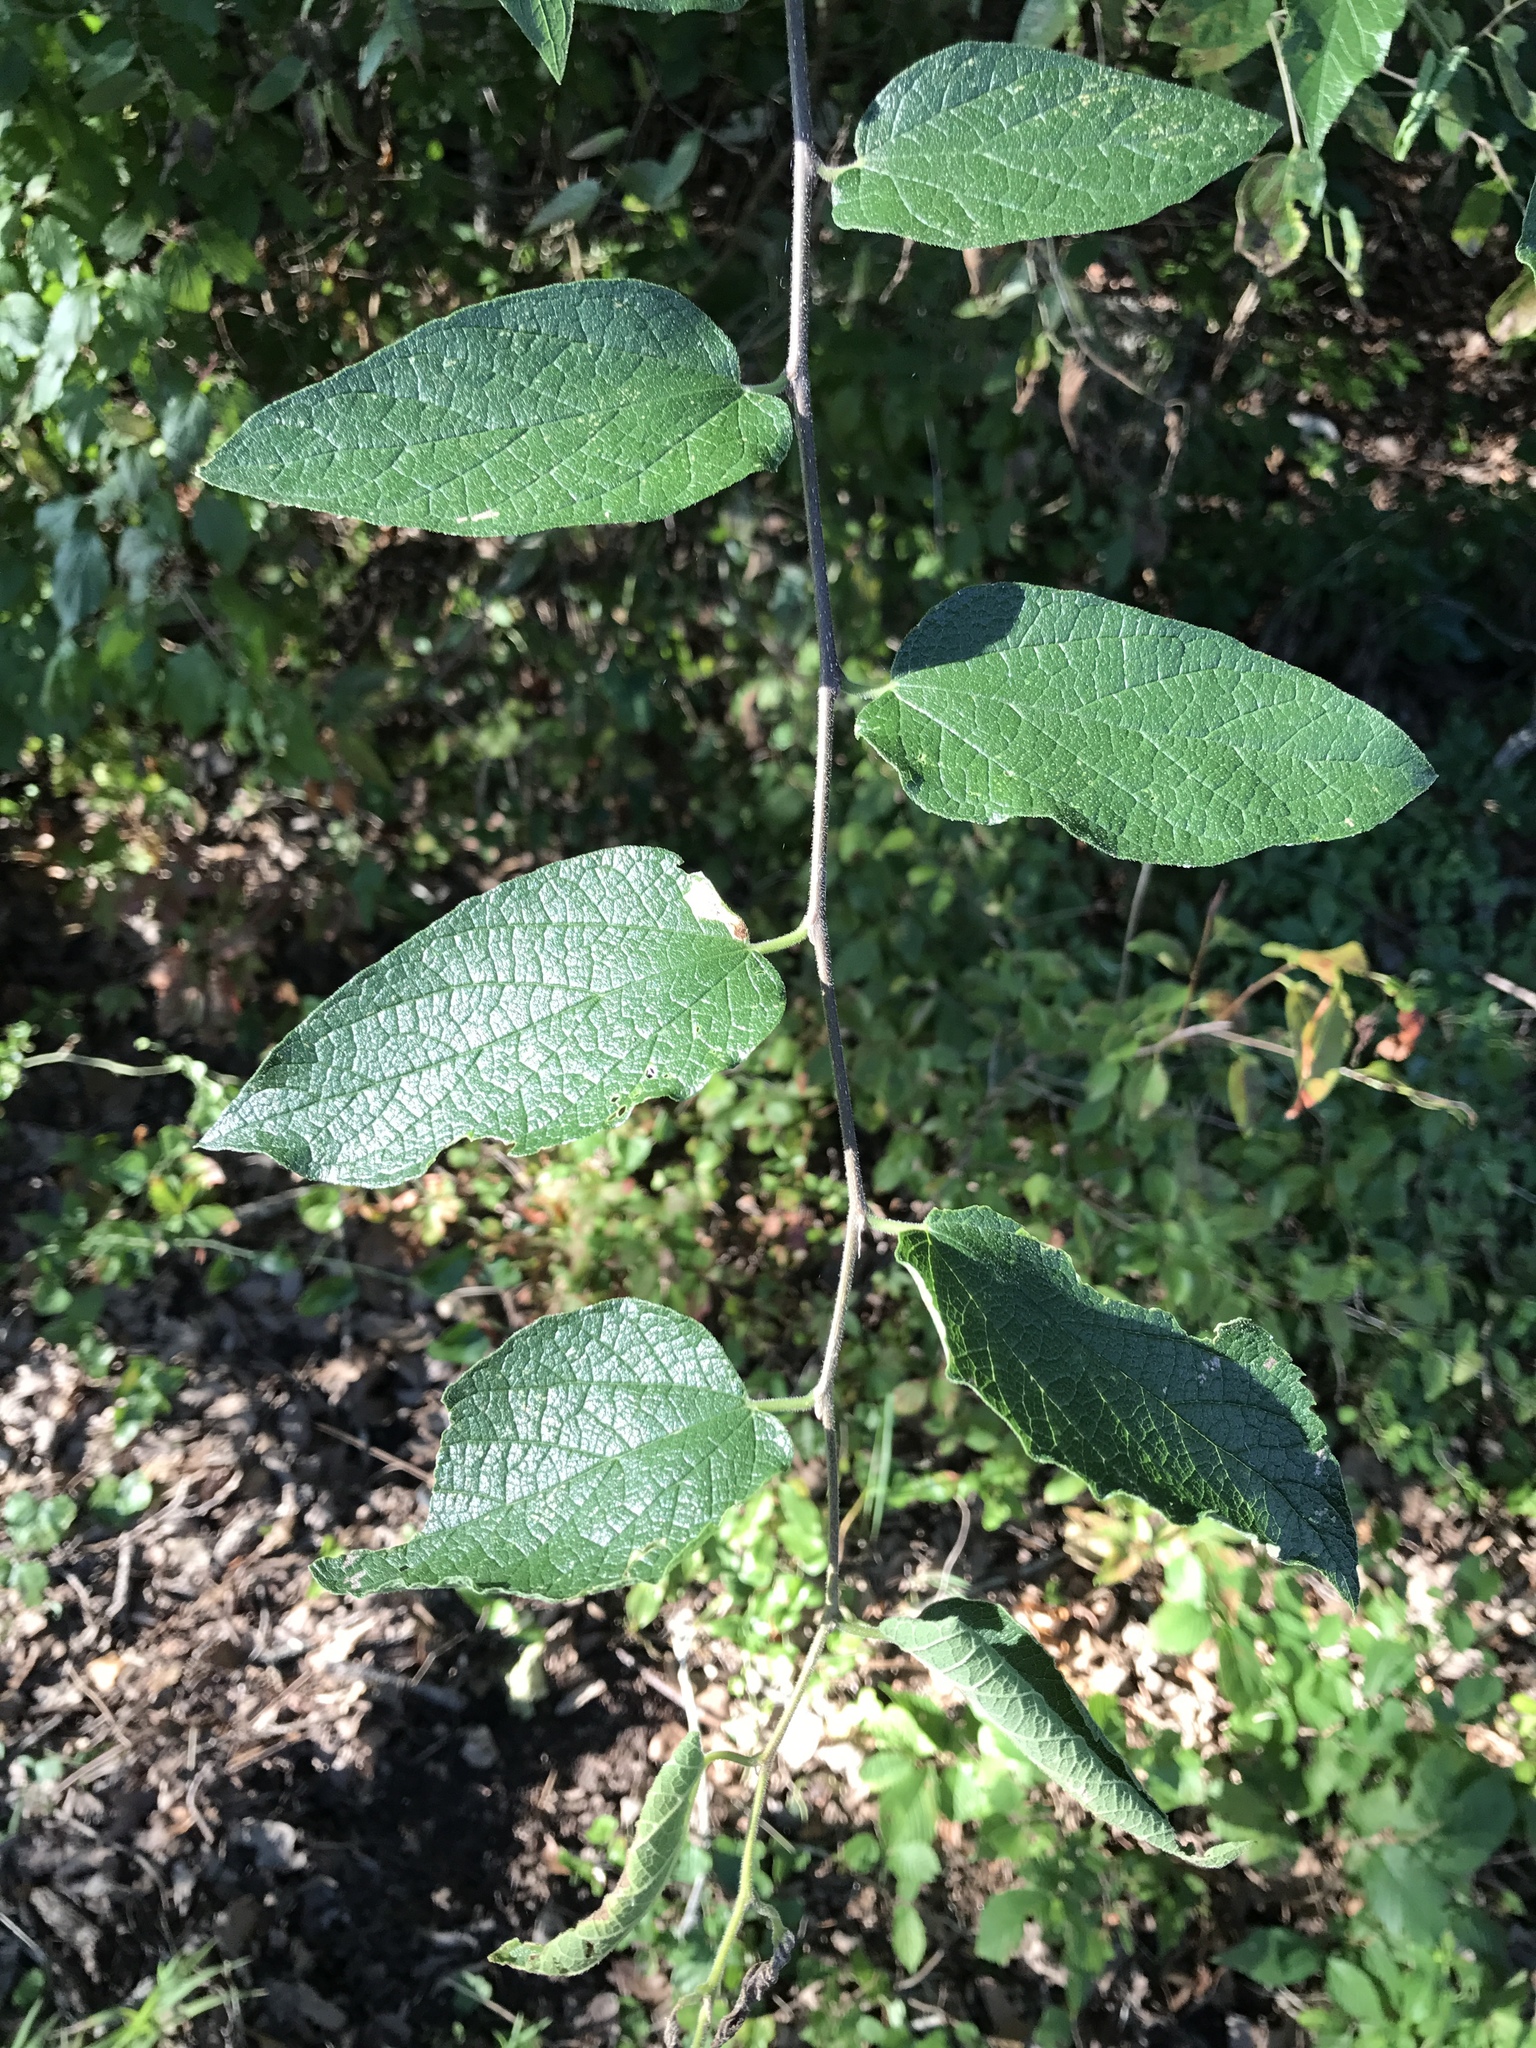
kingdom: Plantae
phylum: Tracheophyta
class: Magnoliopsida
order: Rosales
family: Cannabaceae
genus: Celtis
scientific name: Celtis reticulata
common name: Netleaf hackberry
